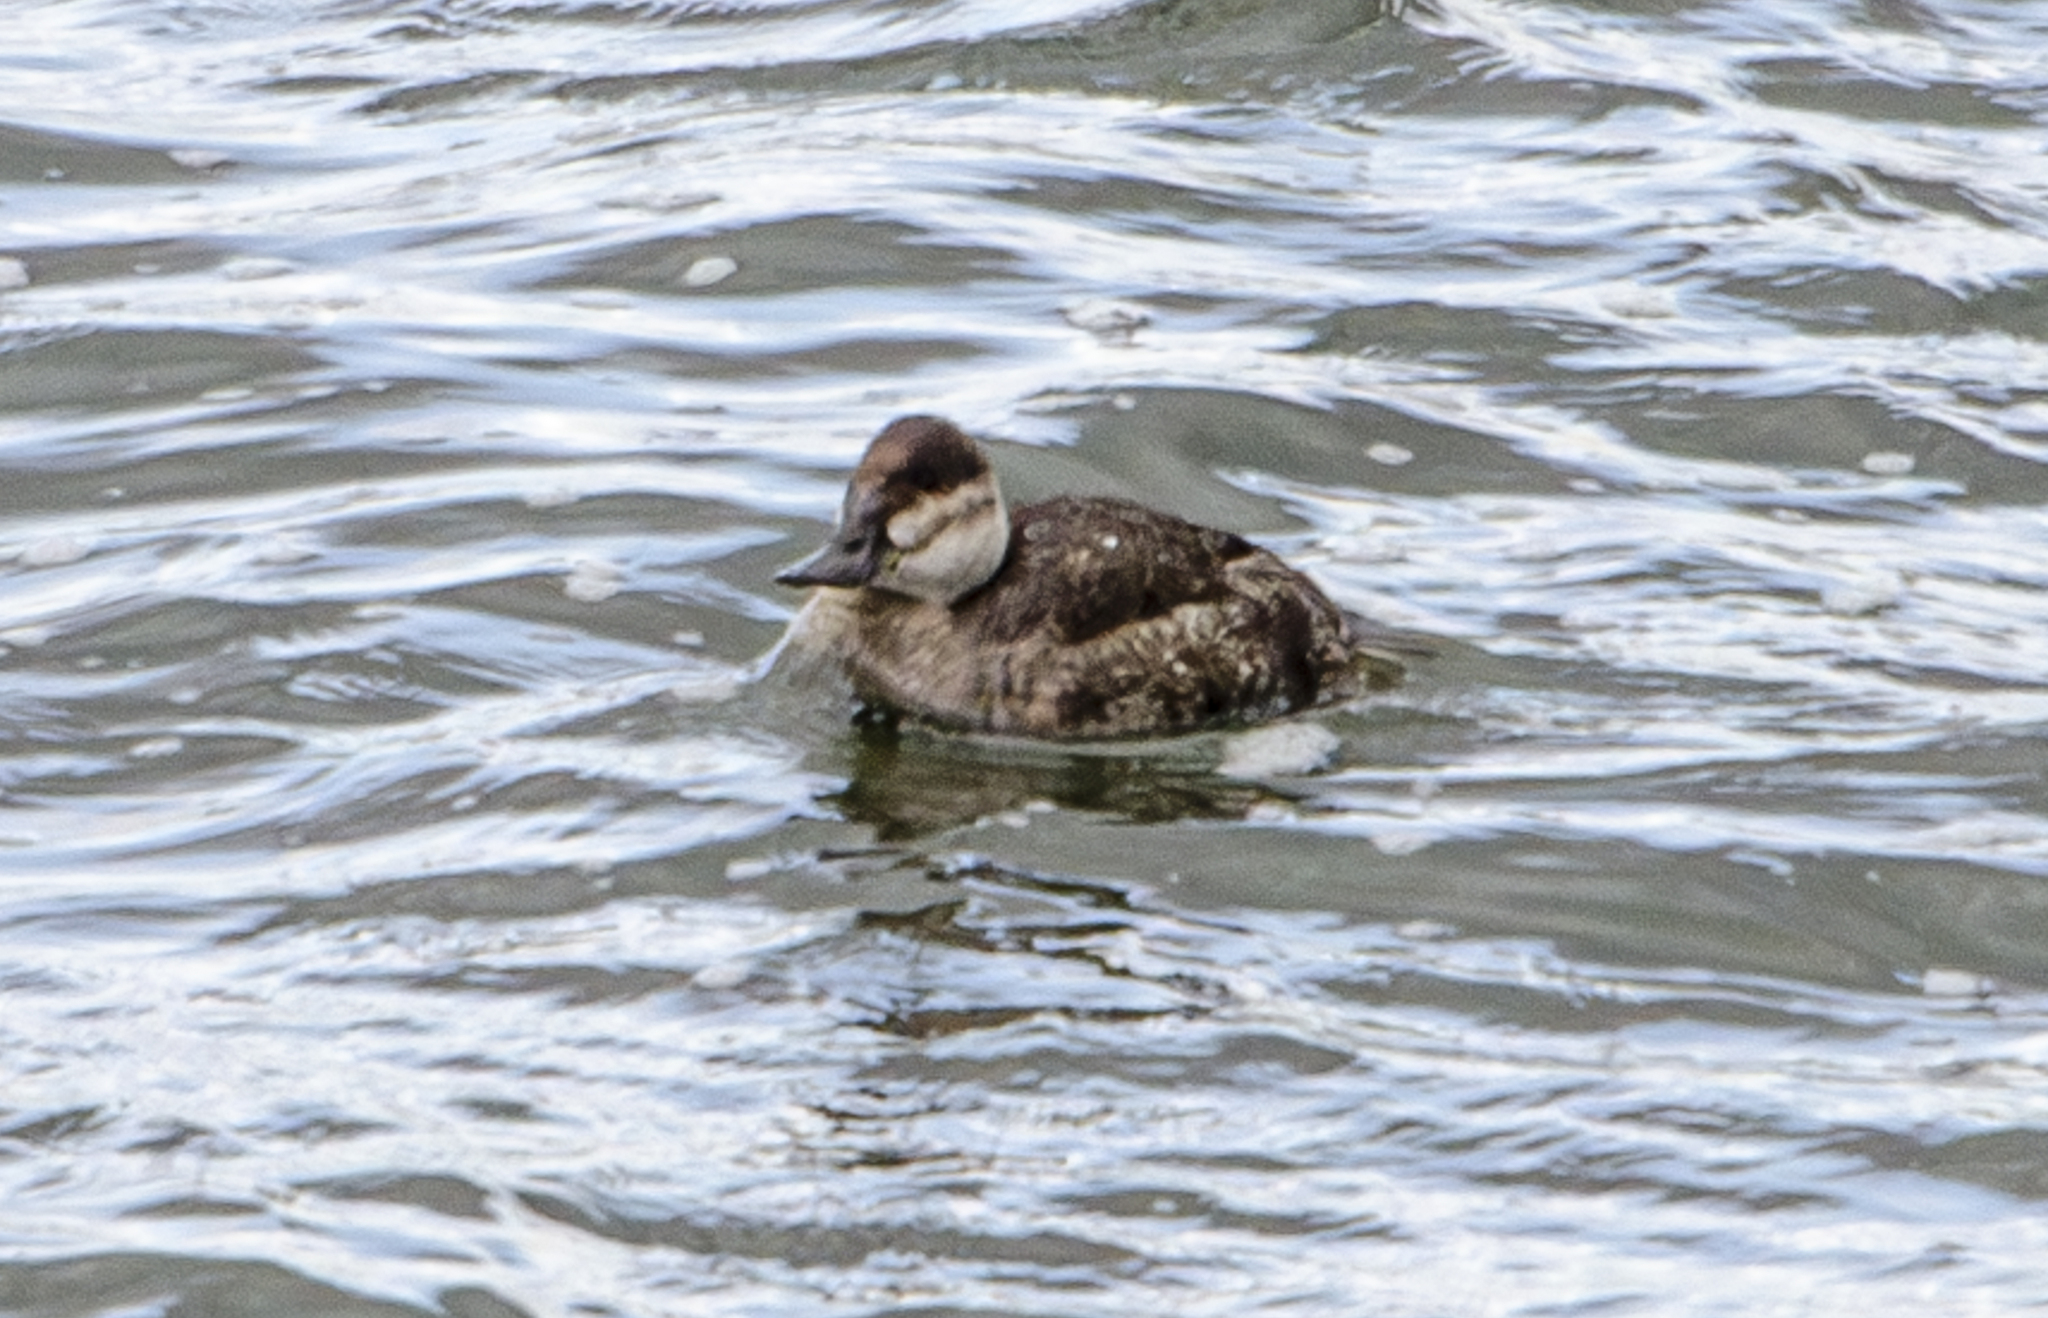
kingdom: Animalia
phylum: Chordata
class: Aves
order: Anseriformes
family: Anatidae
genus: Oxyura
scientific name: Oxyura jamaicensis
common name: Ruddy duck
